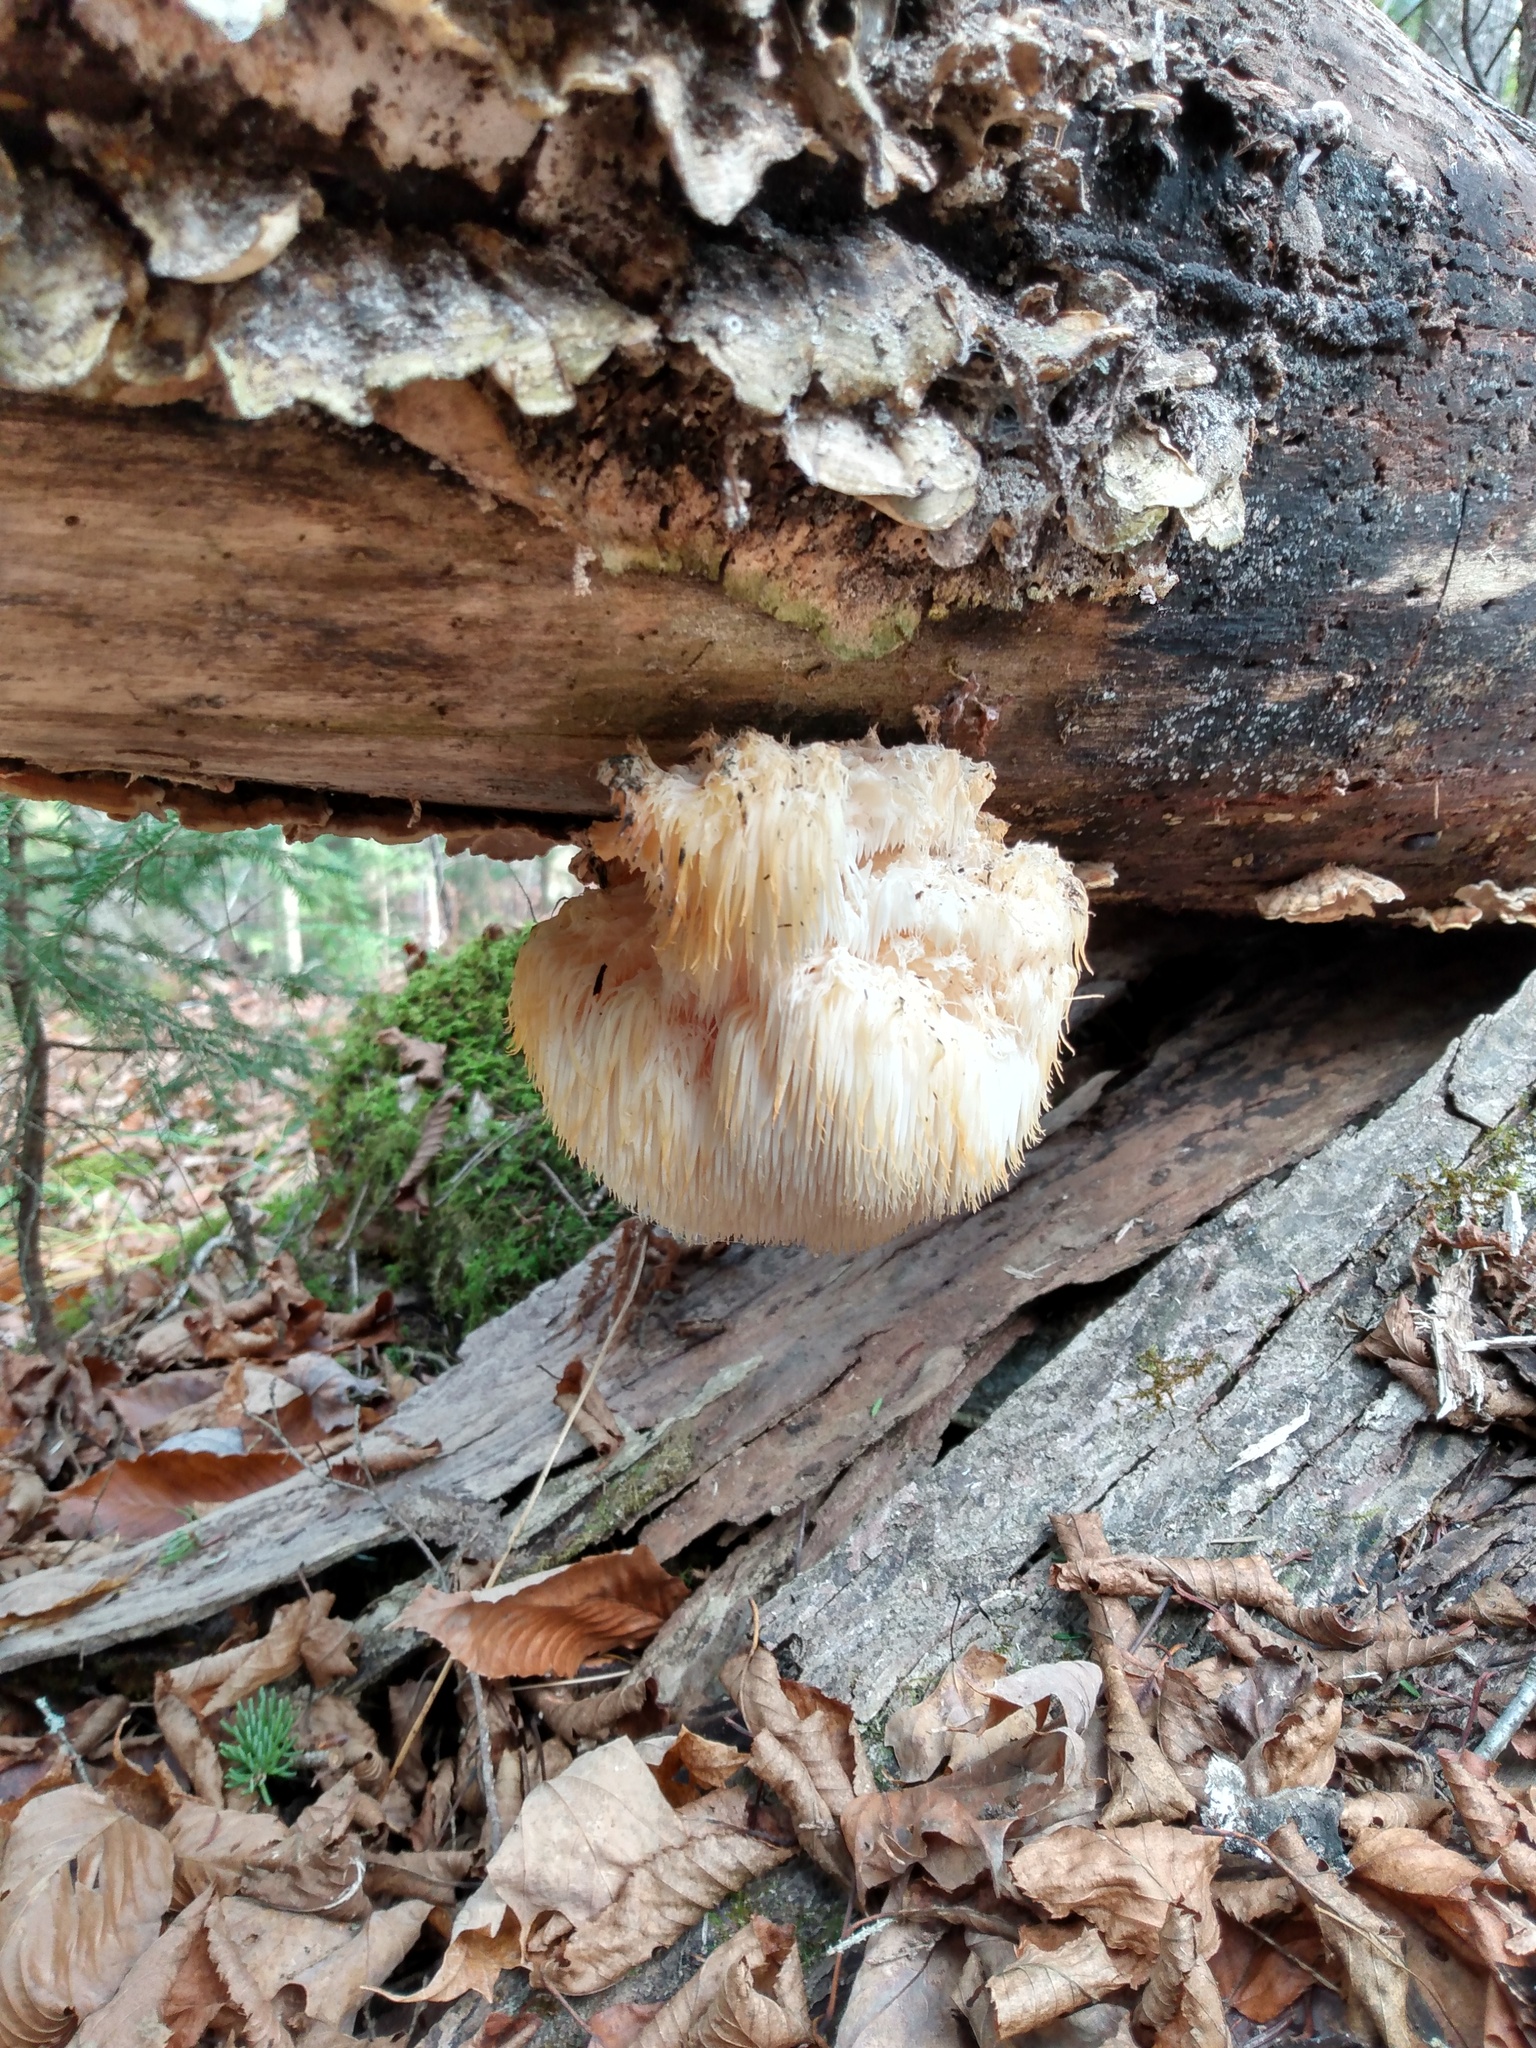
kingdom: Fungi
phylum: Basidiomycota
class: Agaricomycetes
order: Russulales
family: Hericiaceae
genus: Hericium
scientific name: Hericium erinaceus
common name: Bearded tooth
